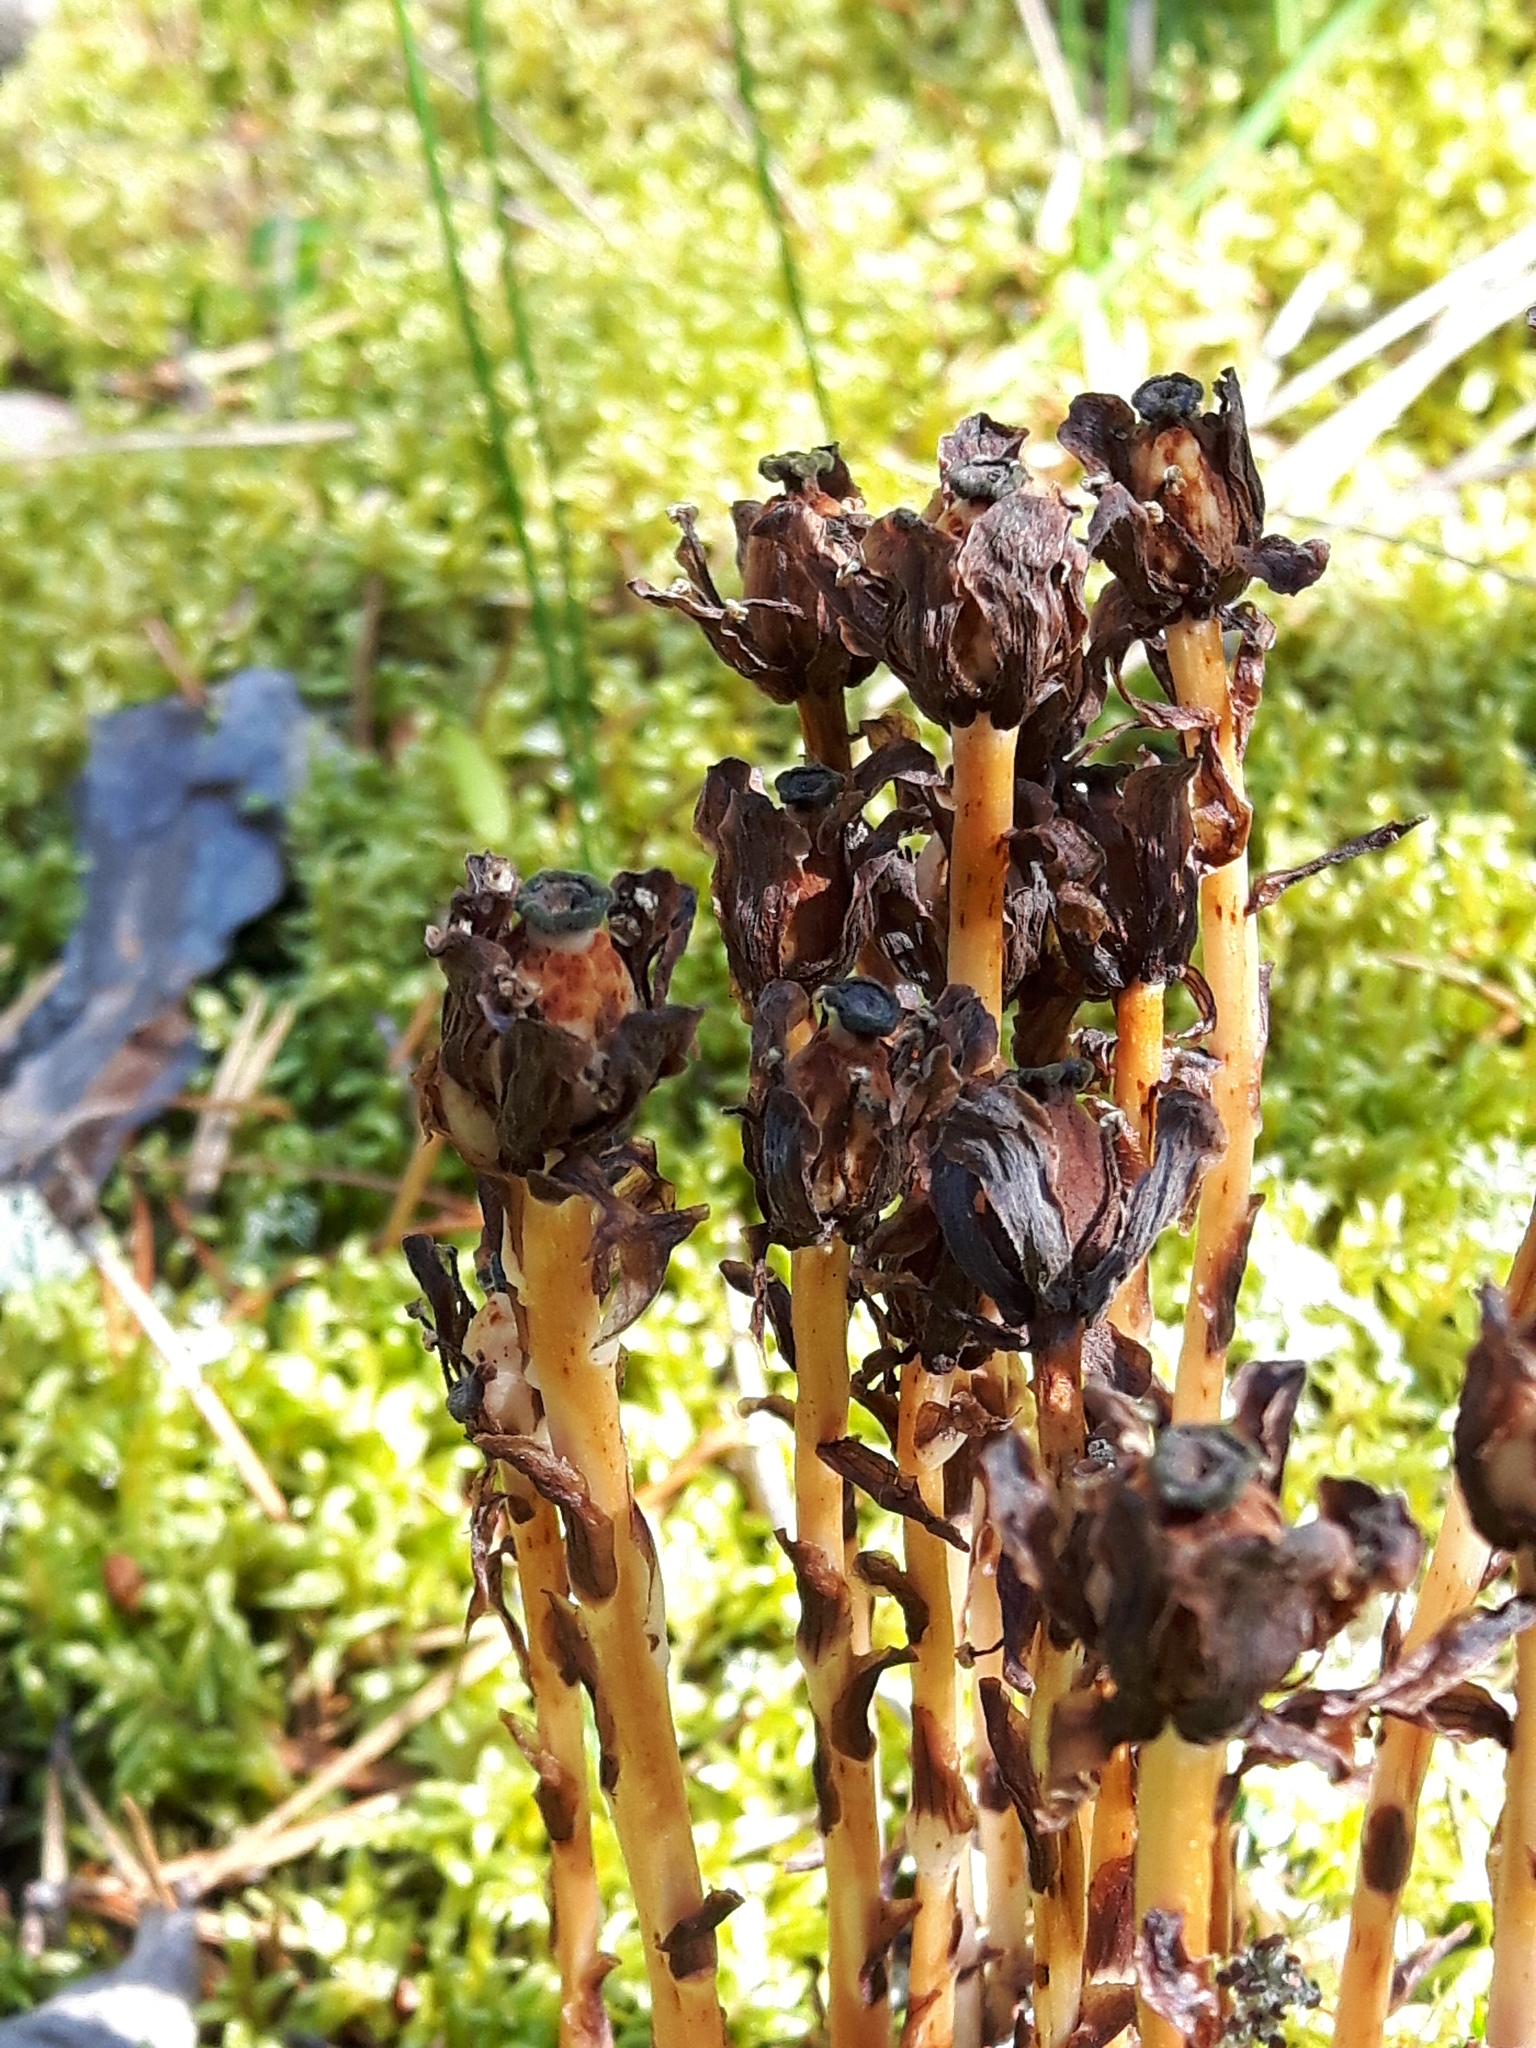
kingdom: Plantae
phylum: Tracheophyta
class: Magnoliopsida
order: Ericales
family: Ericaceae
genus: Monotropa
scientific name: Monotropa uniflora
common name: Convulsion root
